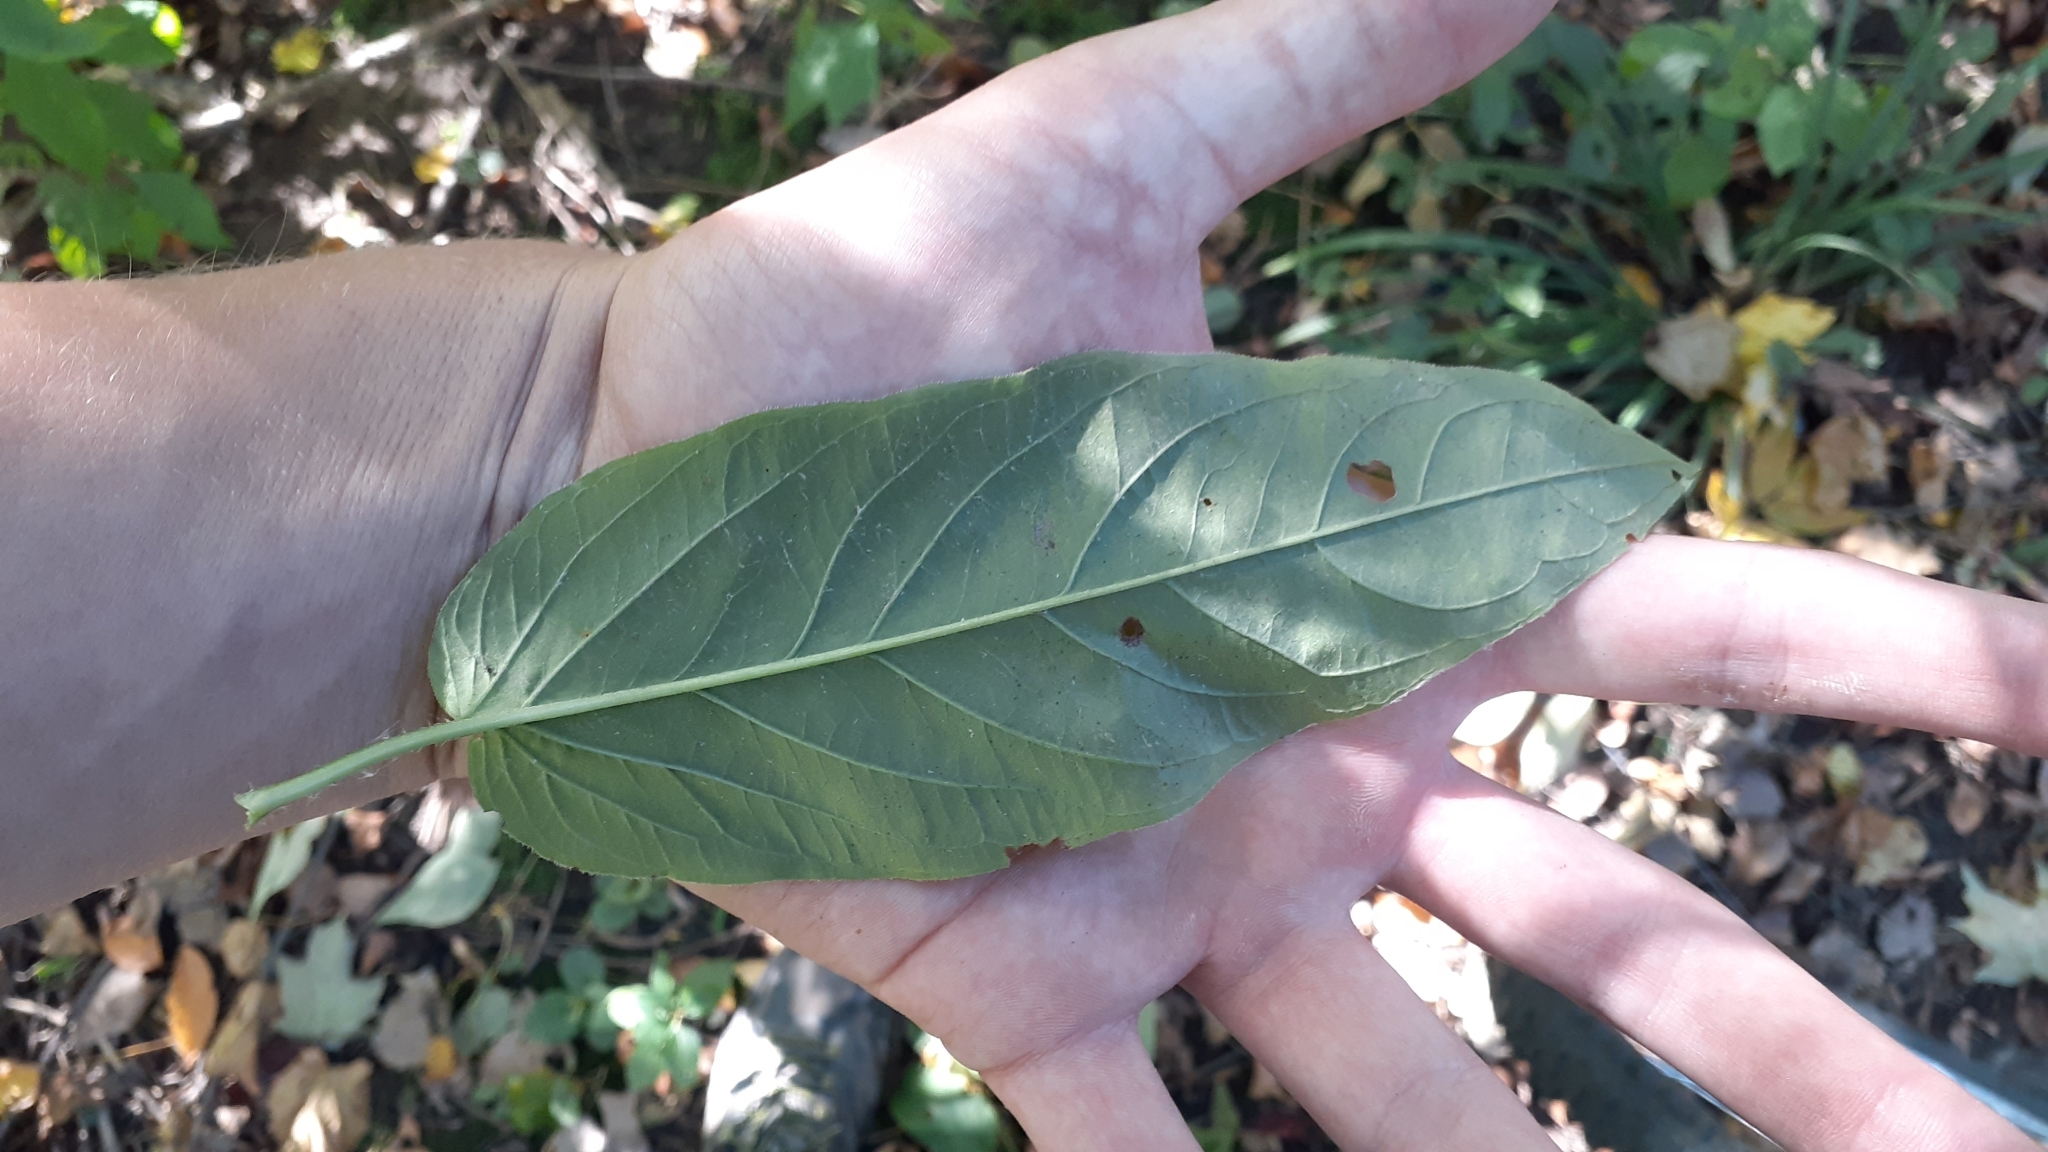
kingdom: Plantae
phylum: Tracheophyta
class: Magnoliopsida
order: Ericales
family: Primulaceae
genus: Lysimachia
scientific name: Lysimachia ciliata
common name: Fringed loosestrife
